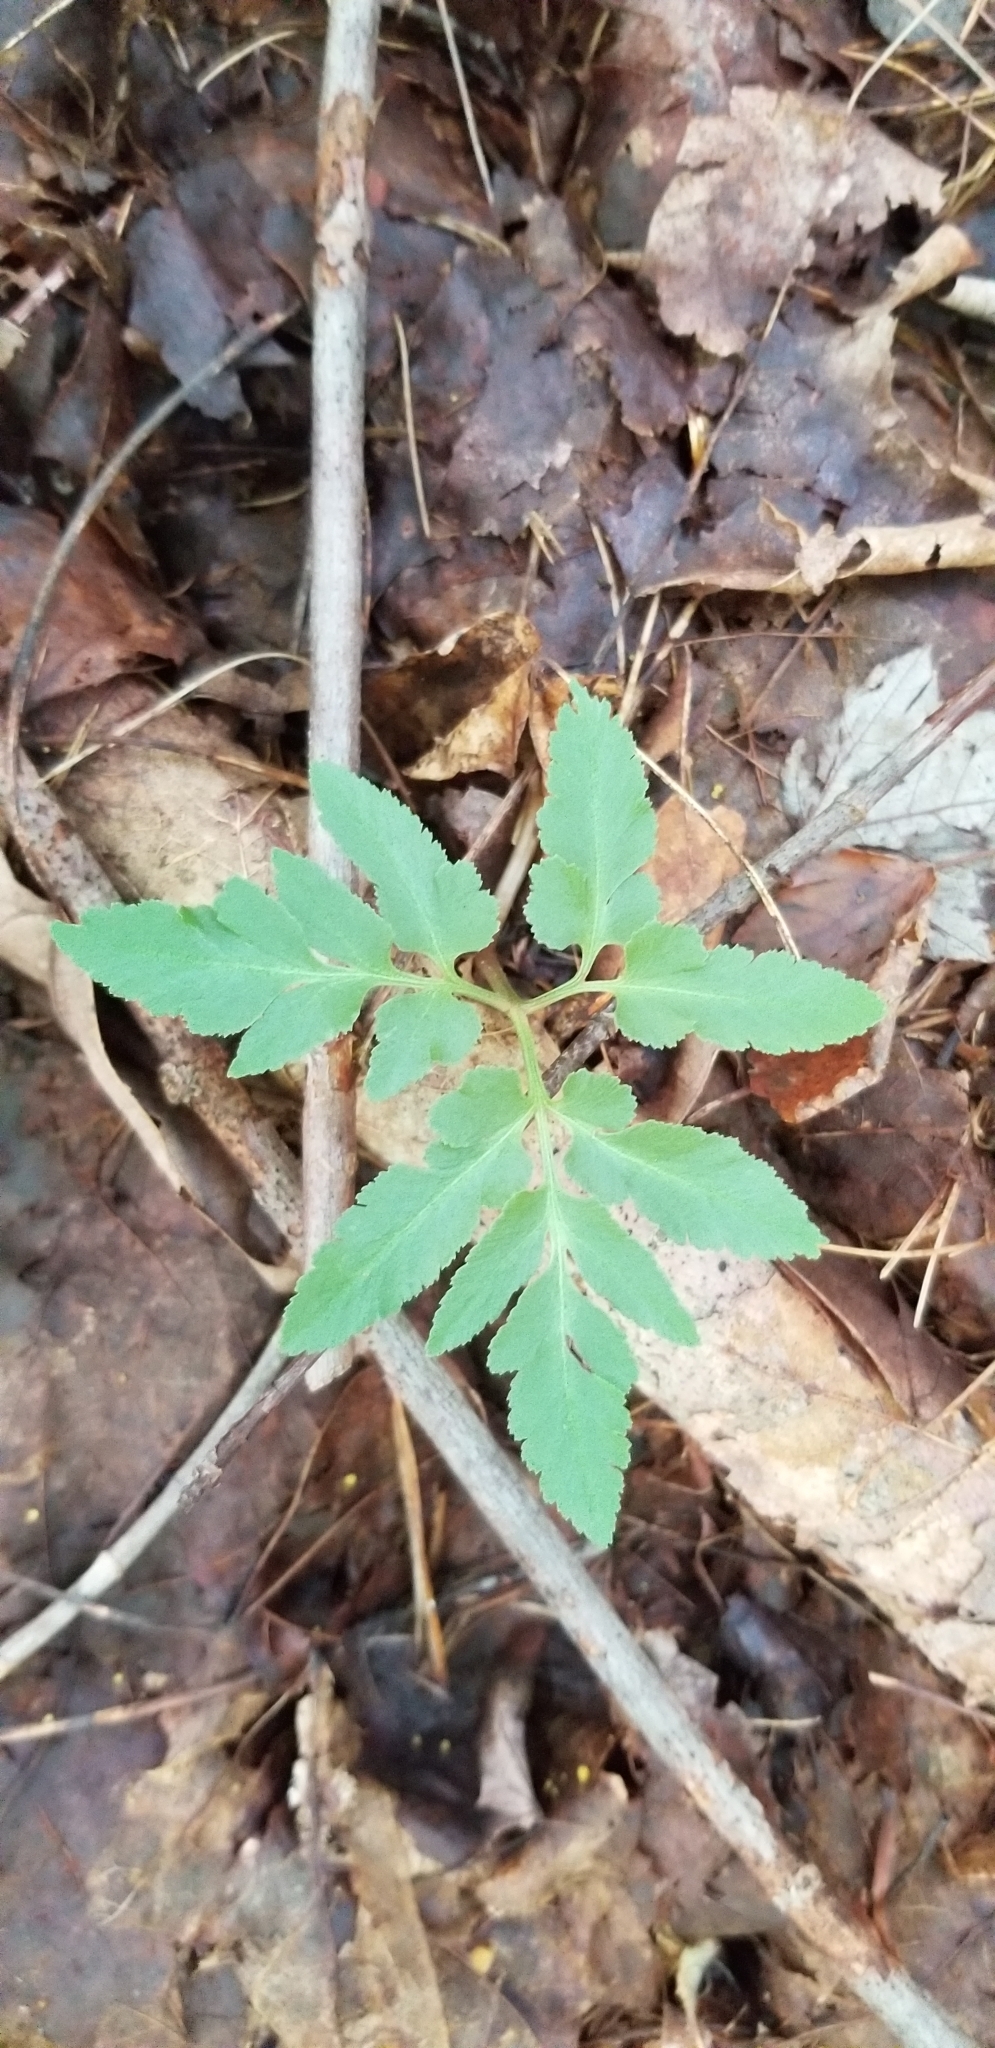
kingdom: Plantae
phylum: Tracheophyta
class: Polypodiopsida
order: Ophioglossales
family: Ophioglossaceae
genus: Sceptridium
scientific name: Sceptridium dissectum
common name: Cut-leaved grapefern
